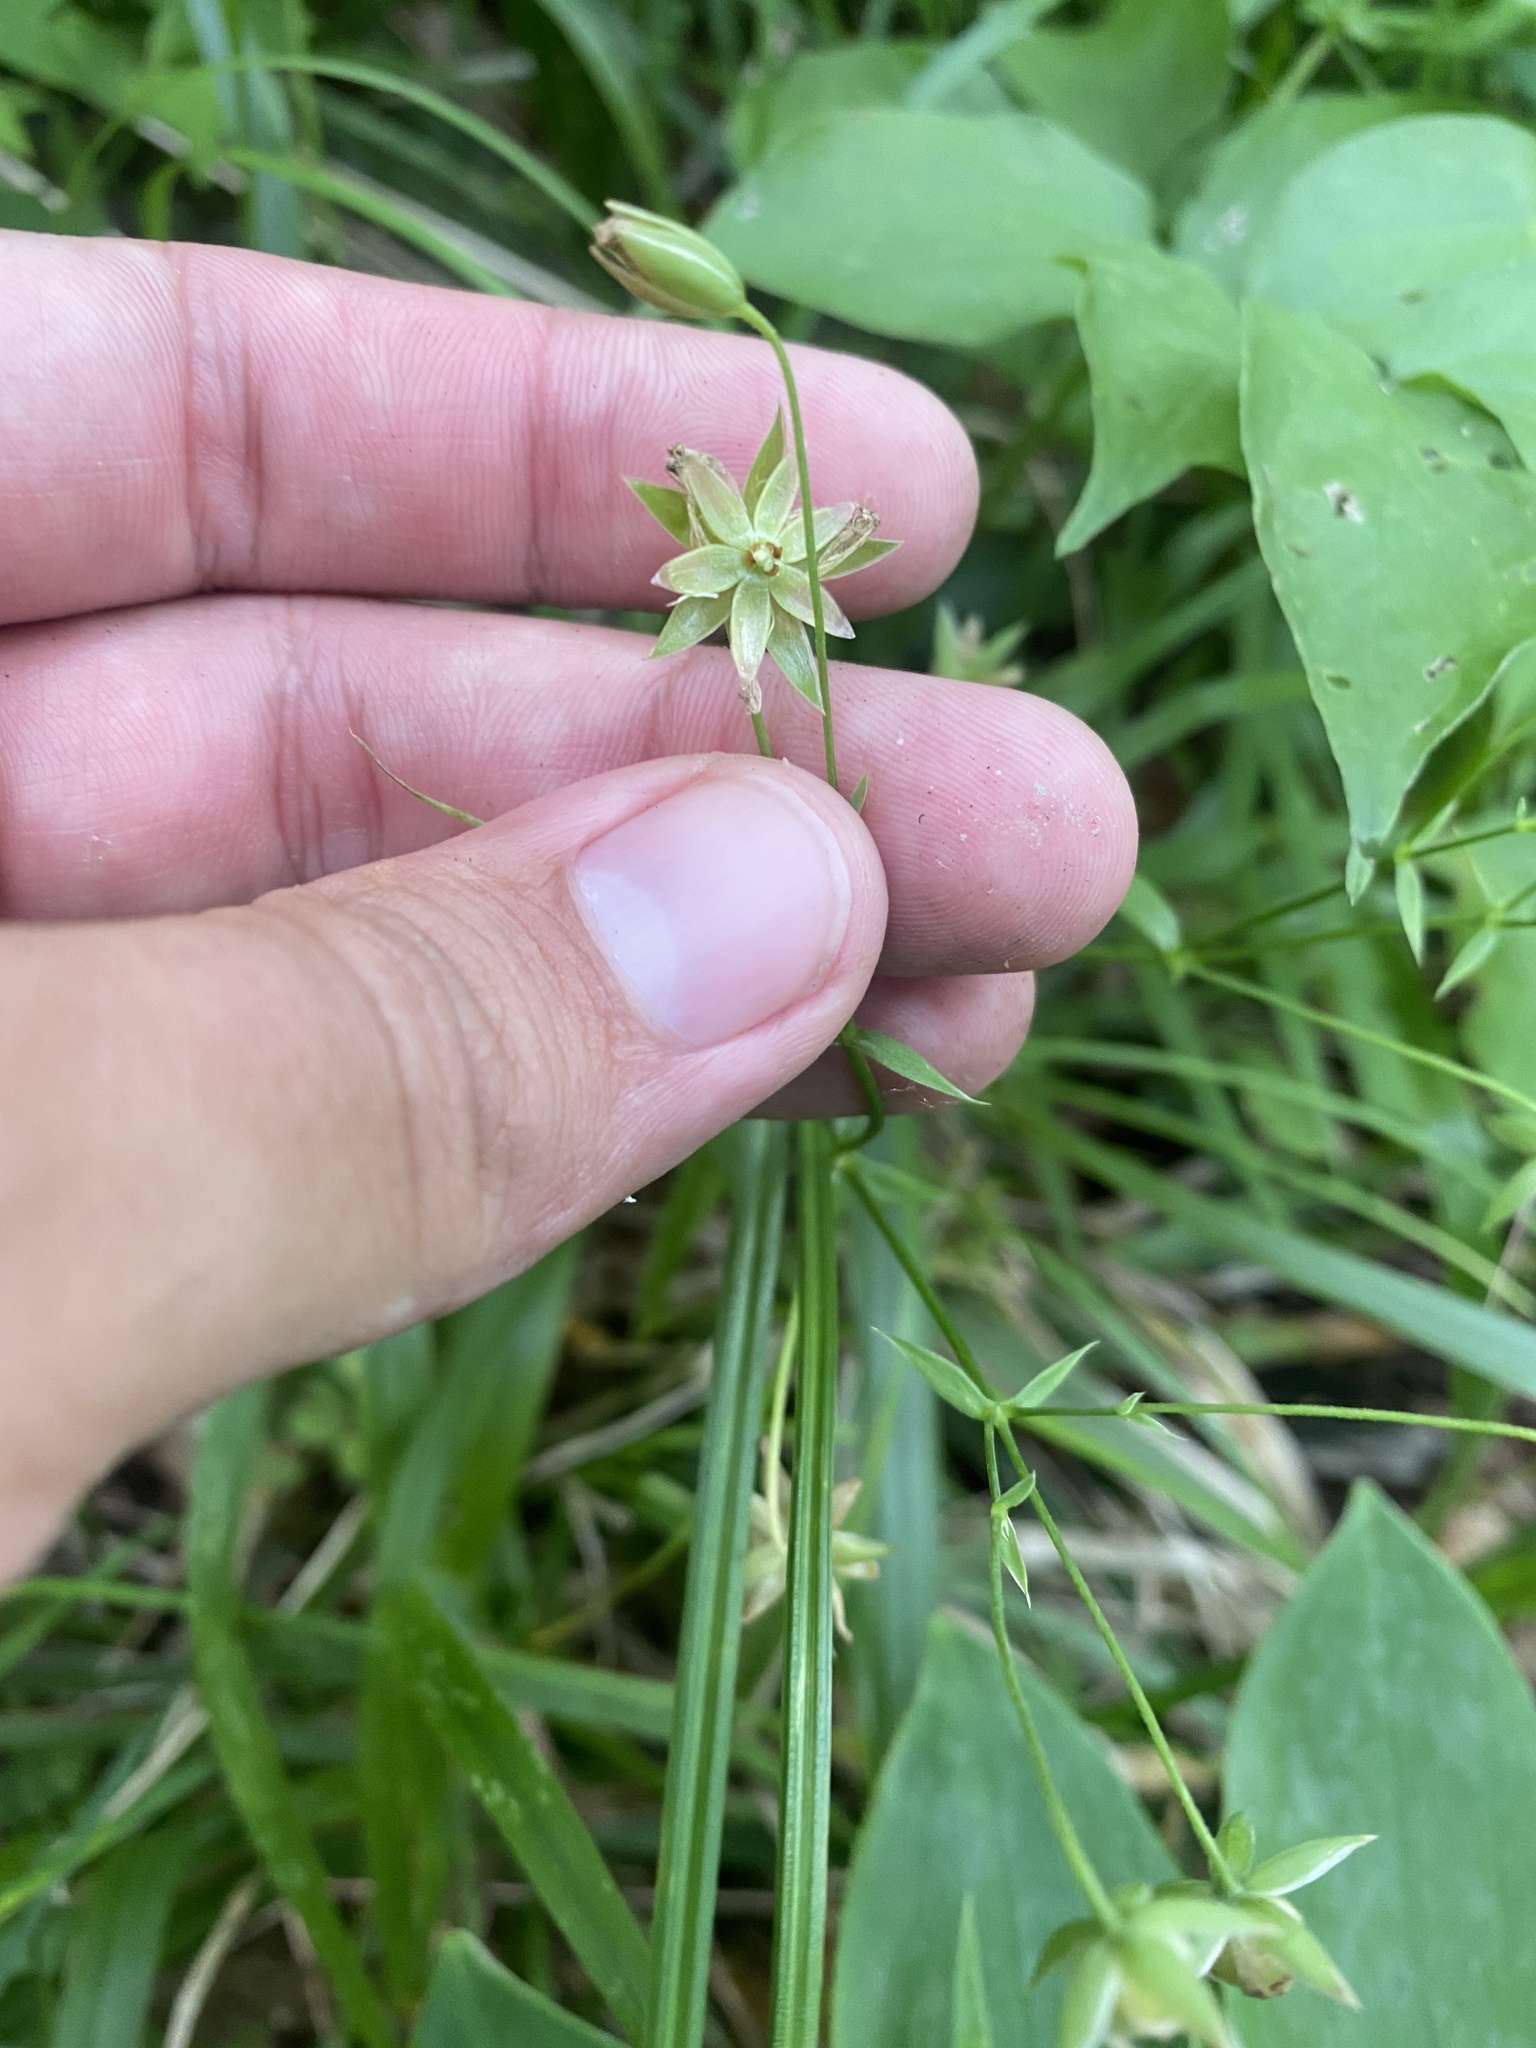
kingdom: Plantae
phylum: Tracheophyta
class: Magnoliopsida
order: Caryophyllales
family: Caryophyllaceae
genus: Rabelera
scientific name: Rabelera holostea
